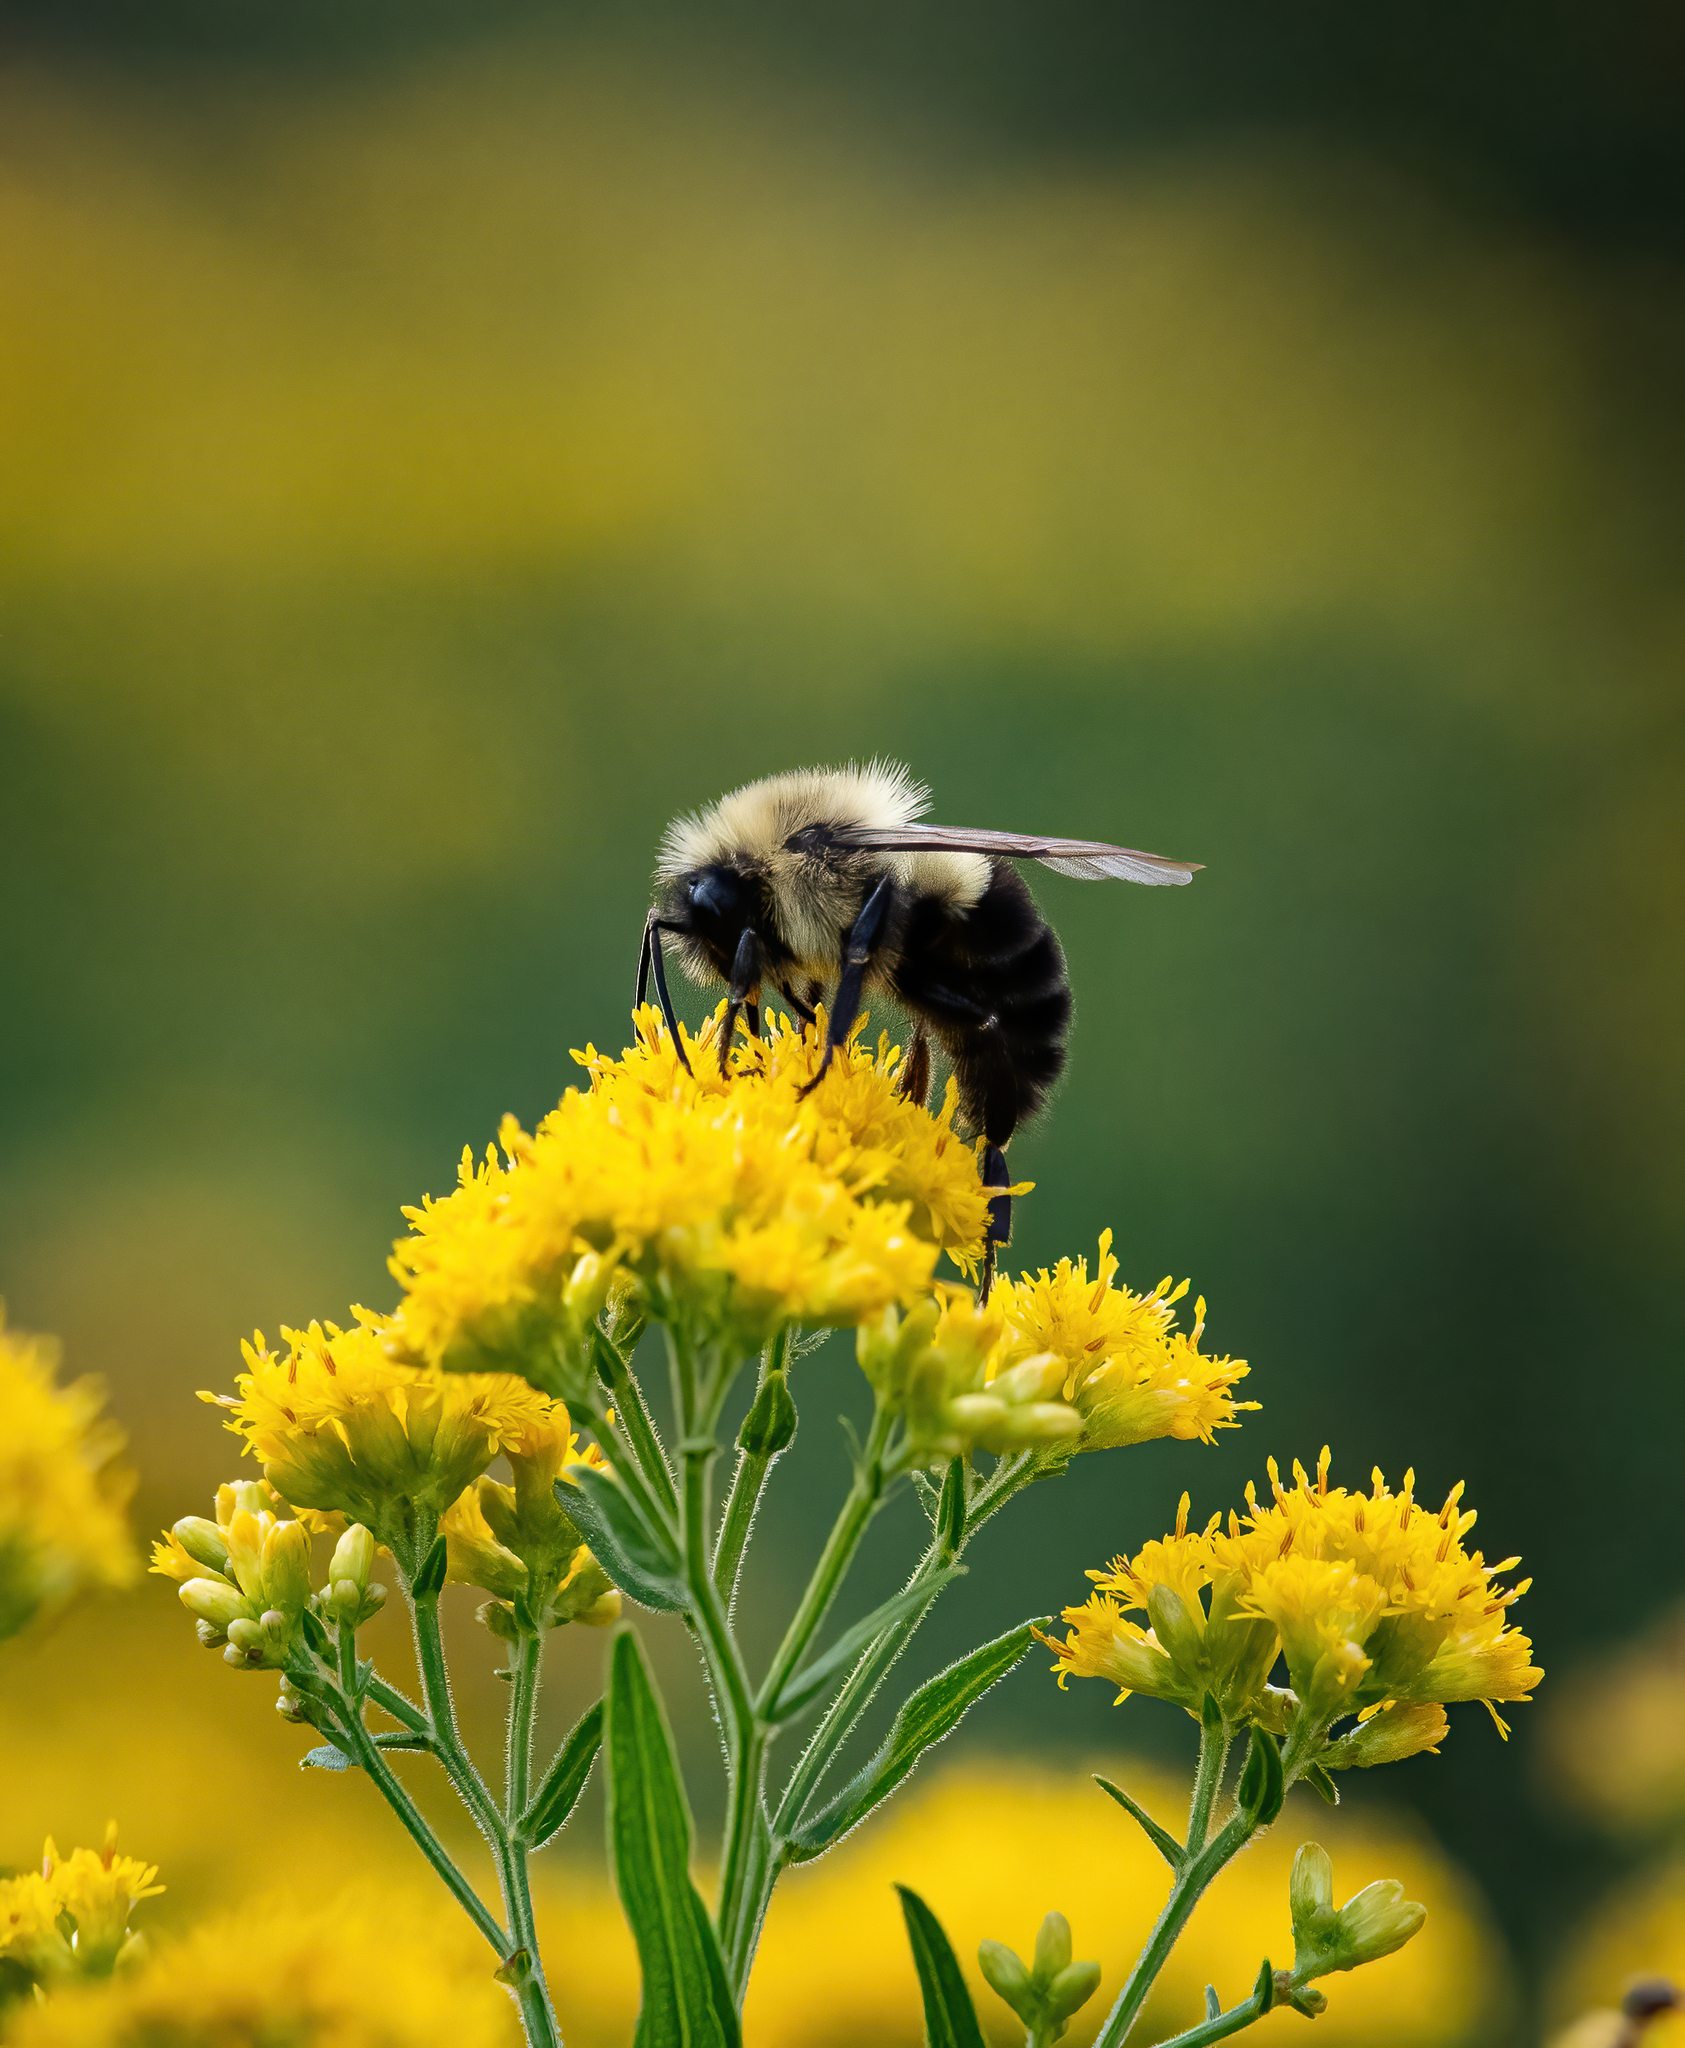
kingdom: Animalia
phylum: Arthropoda
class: Insecta
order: Hymenoptera
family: Apidae
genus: Bombus
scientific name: Bombus impatiens
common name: Common eastern bumble bee
